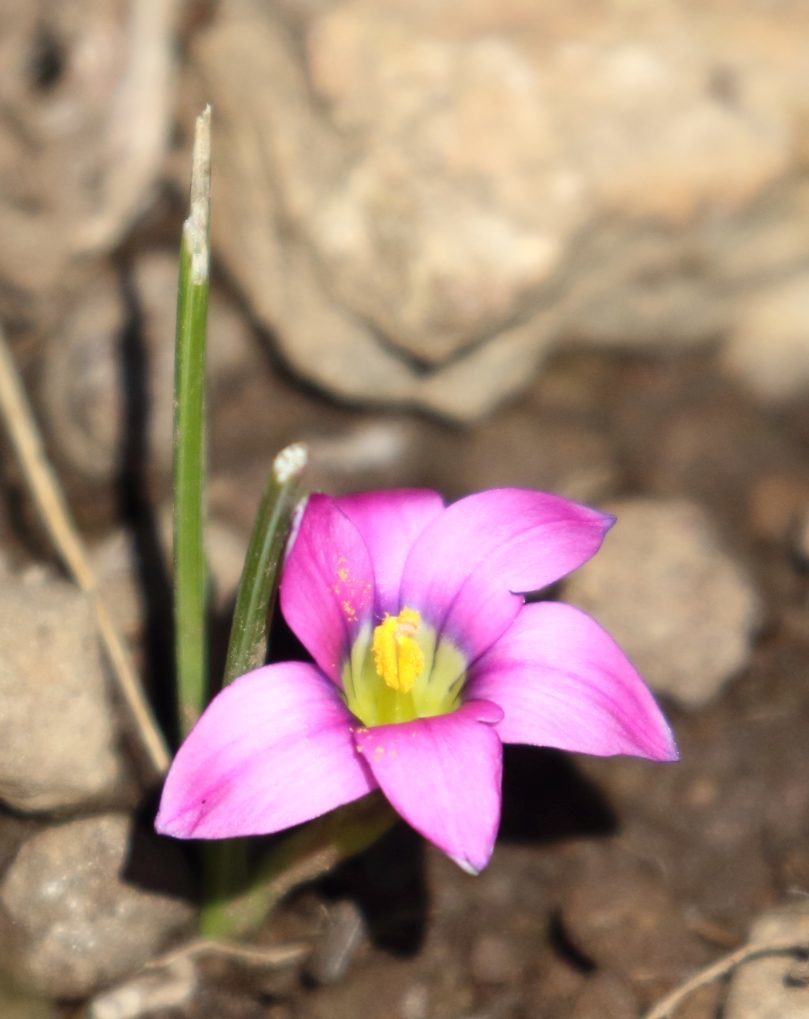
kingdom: Plantae
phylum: Tracheophyta
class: Liliopsida
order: Asparagales
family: Iridaceae
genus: Romulea
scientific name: Romulea camerooniana
